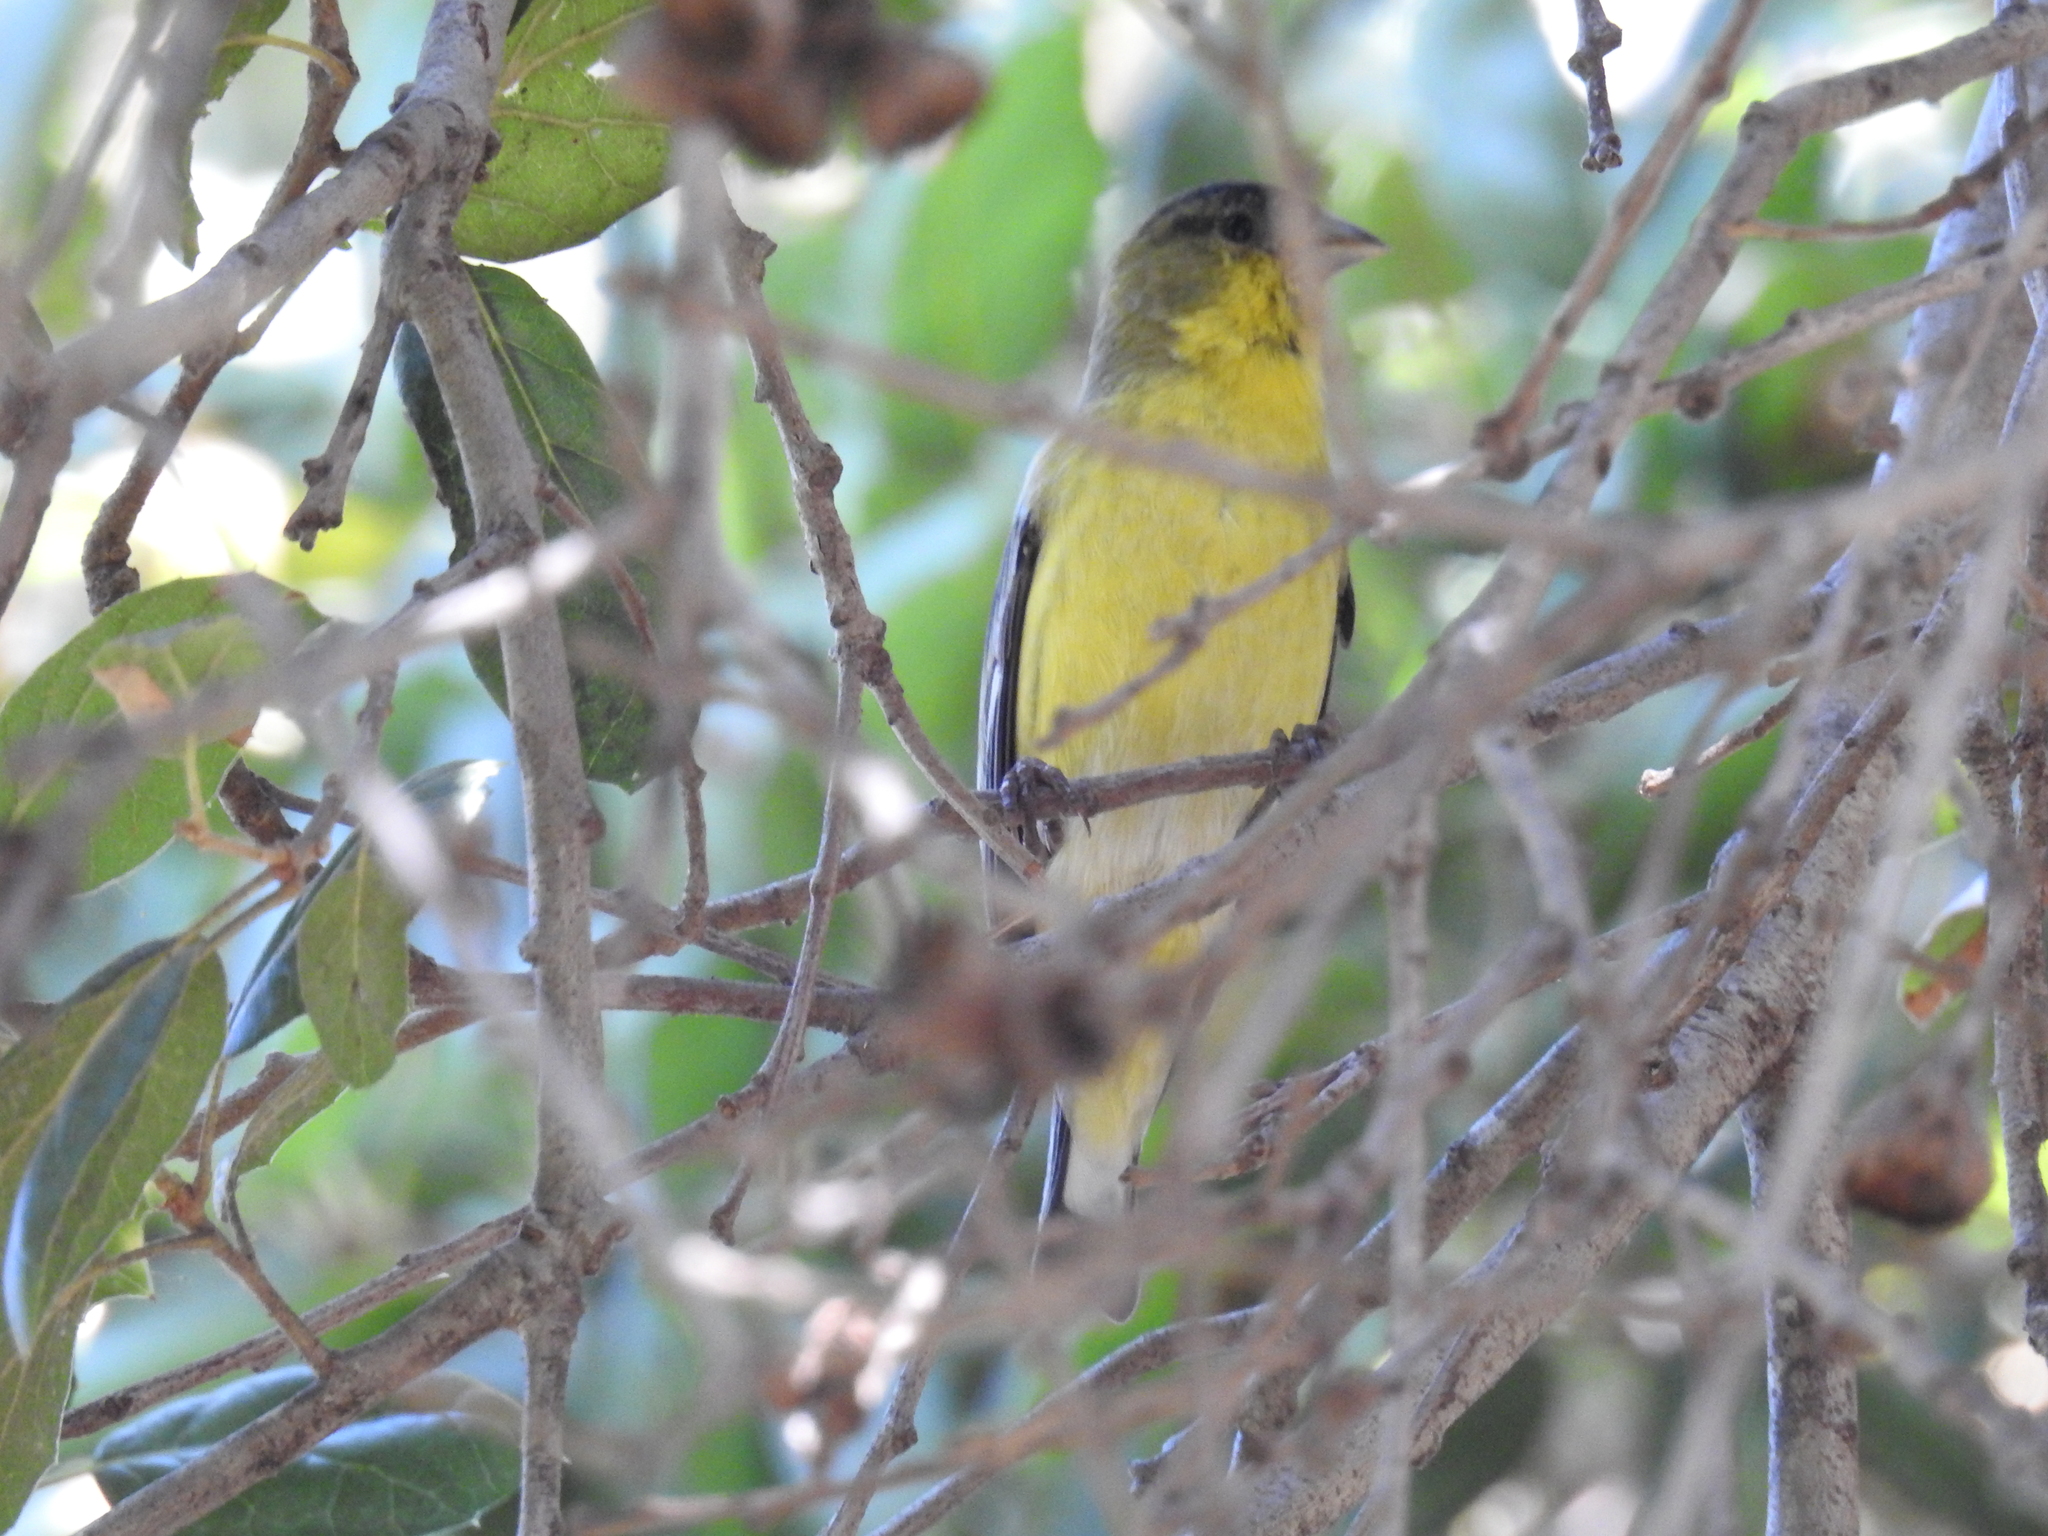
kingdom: Animalia
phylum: Chordata
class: Aves
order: Passeriformes
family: Fringillidae
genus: Spinus
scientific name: Spinus psaltria
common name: Lesser goldfinch
